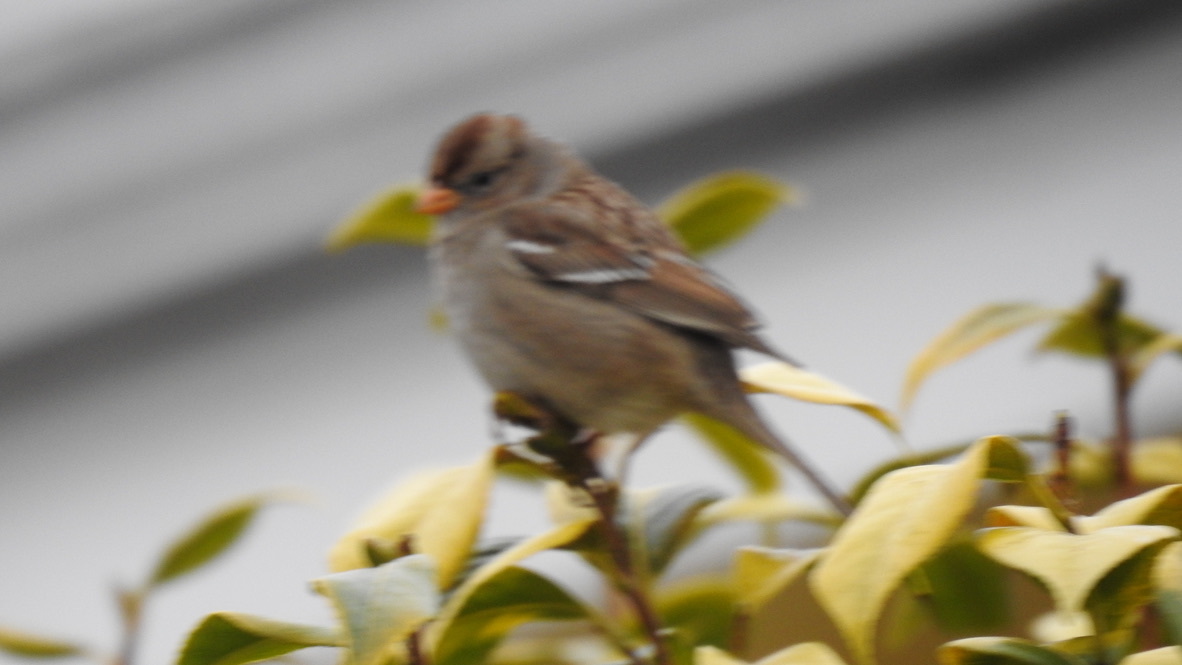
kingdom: Animalia
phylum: Chordata
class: Aves
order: Passeriformes
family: Passerellidae
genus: Zonotrichia
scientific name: Zonotrichia leucophrys
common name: White-crowned sparrow
